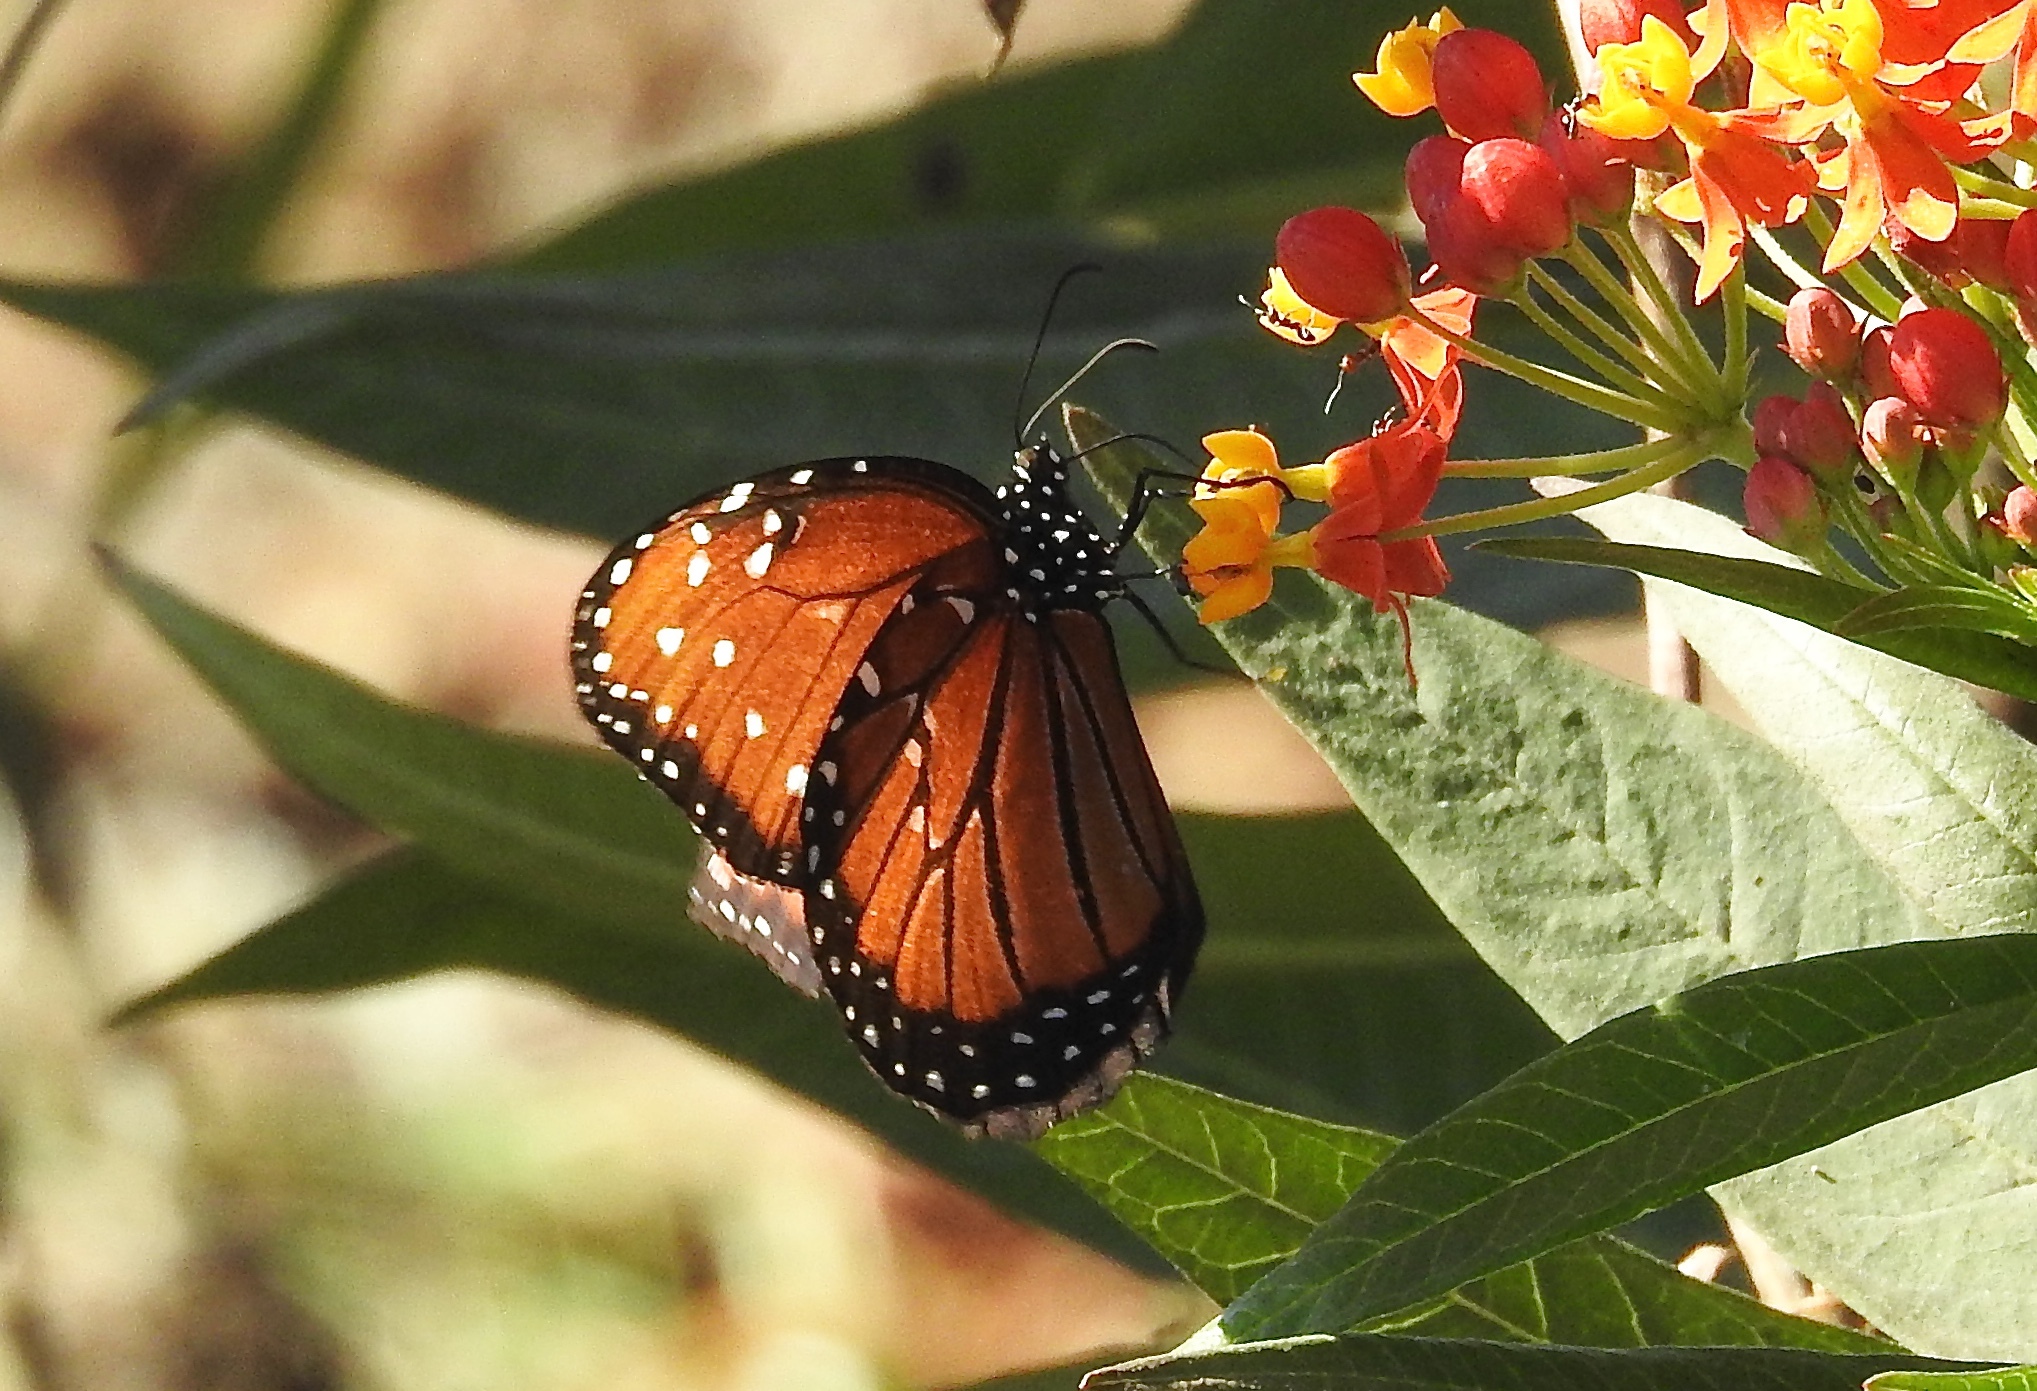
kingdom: Animalia
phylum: Arthropoda
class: Insecta
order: Lepidoptera
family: Nymphalidae
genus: Danaus
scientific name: Danaus gilippus
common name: Queen
